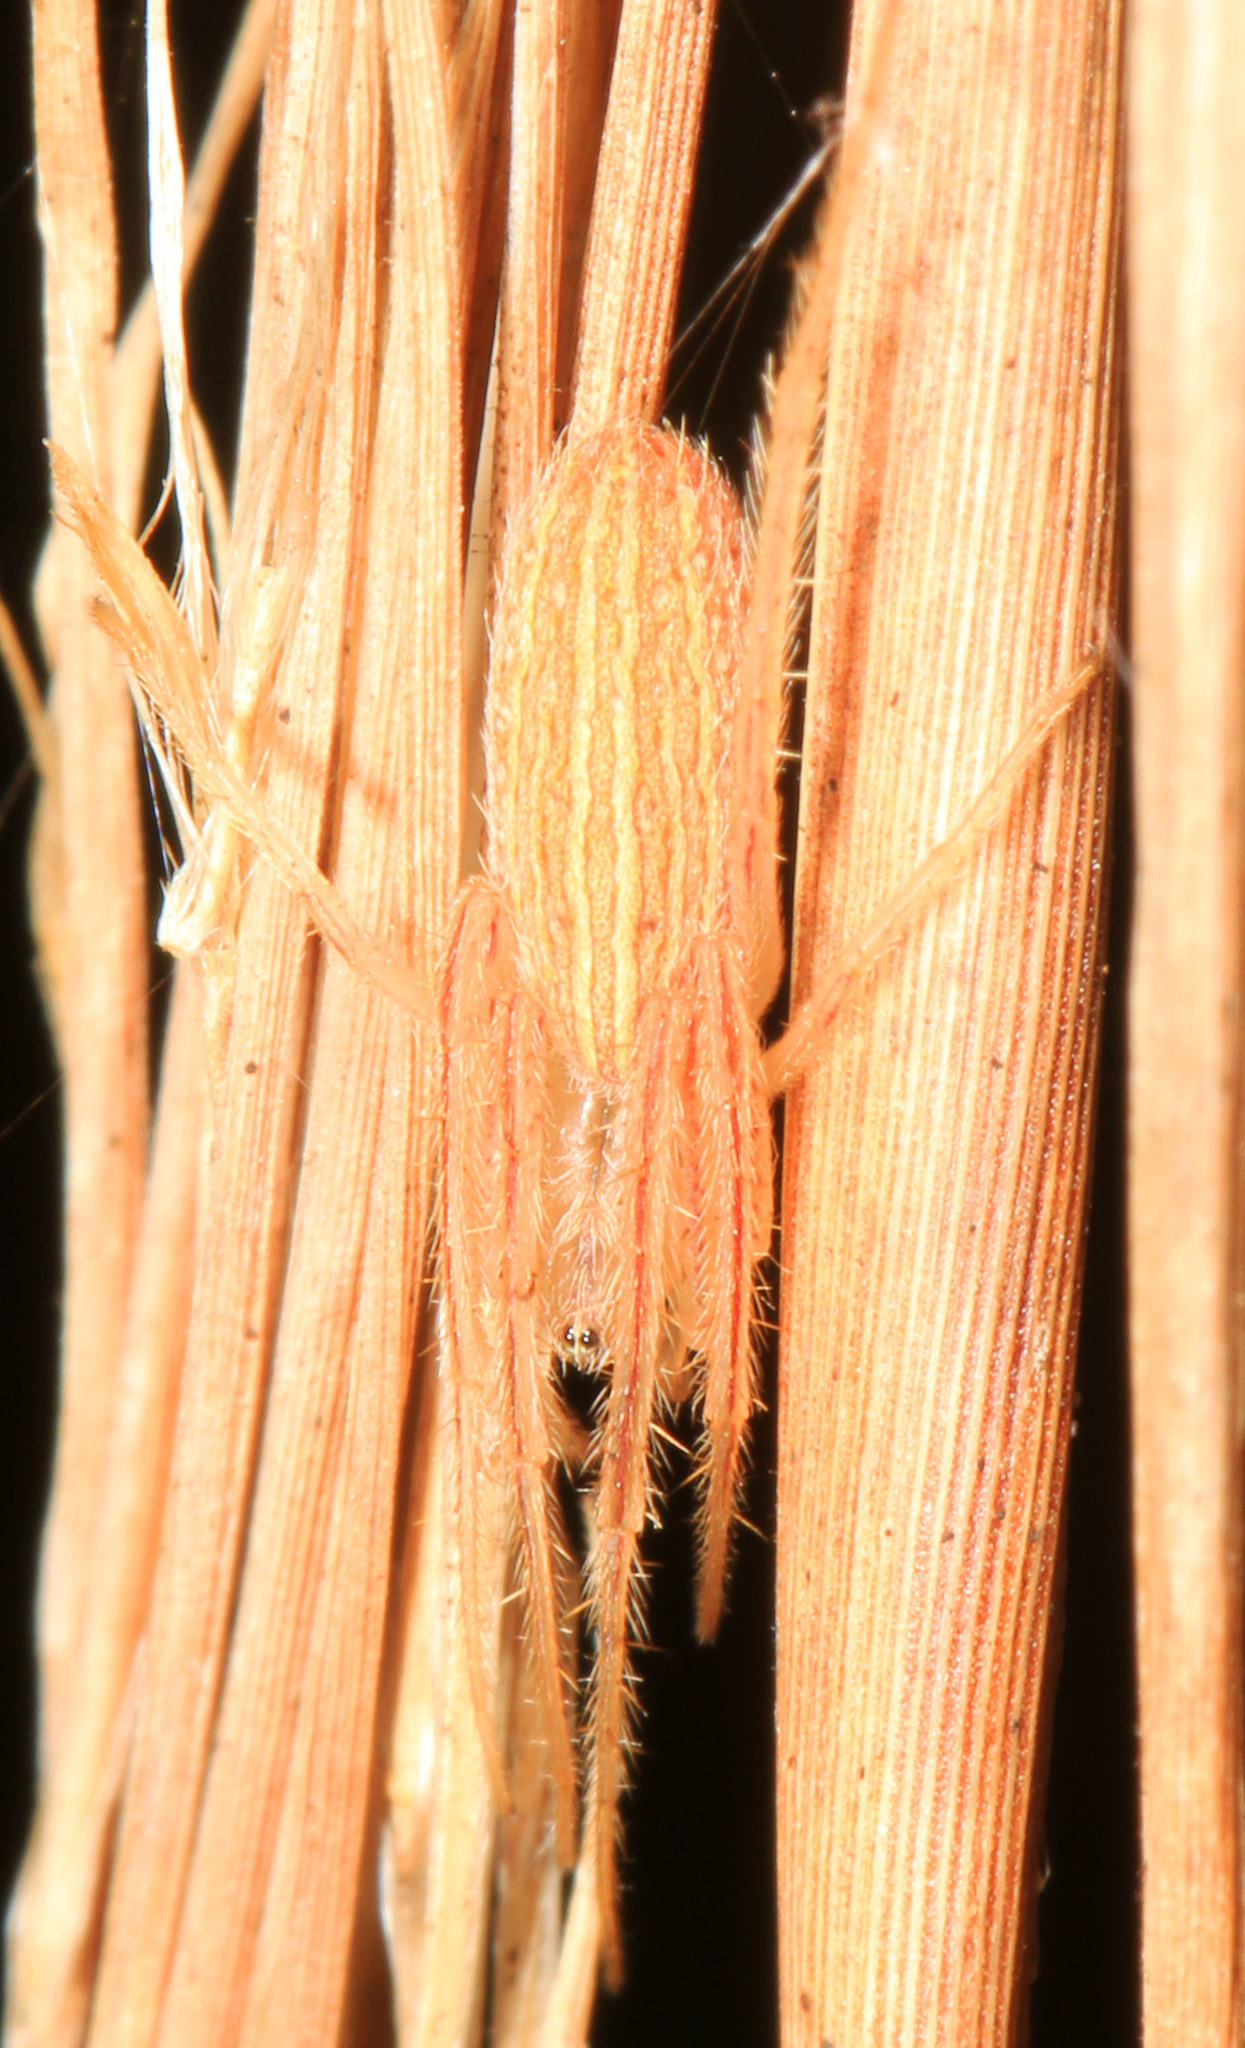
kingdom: Animalia
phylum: Arthropoda
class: Arachnida
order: Araneae
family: Araneidae
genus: Larinia
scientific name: Larinia directa
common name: Orb weavers
